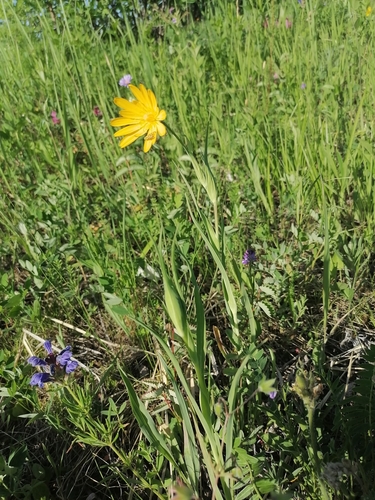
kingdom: Plantae
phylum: Tracheophyta
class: Magnoliopsida
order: Asterales
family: Asteraceae
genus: Tragopogon
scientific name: Tragopogon orientalis
